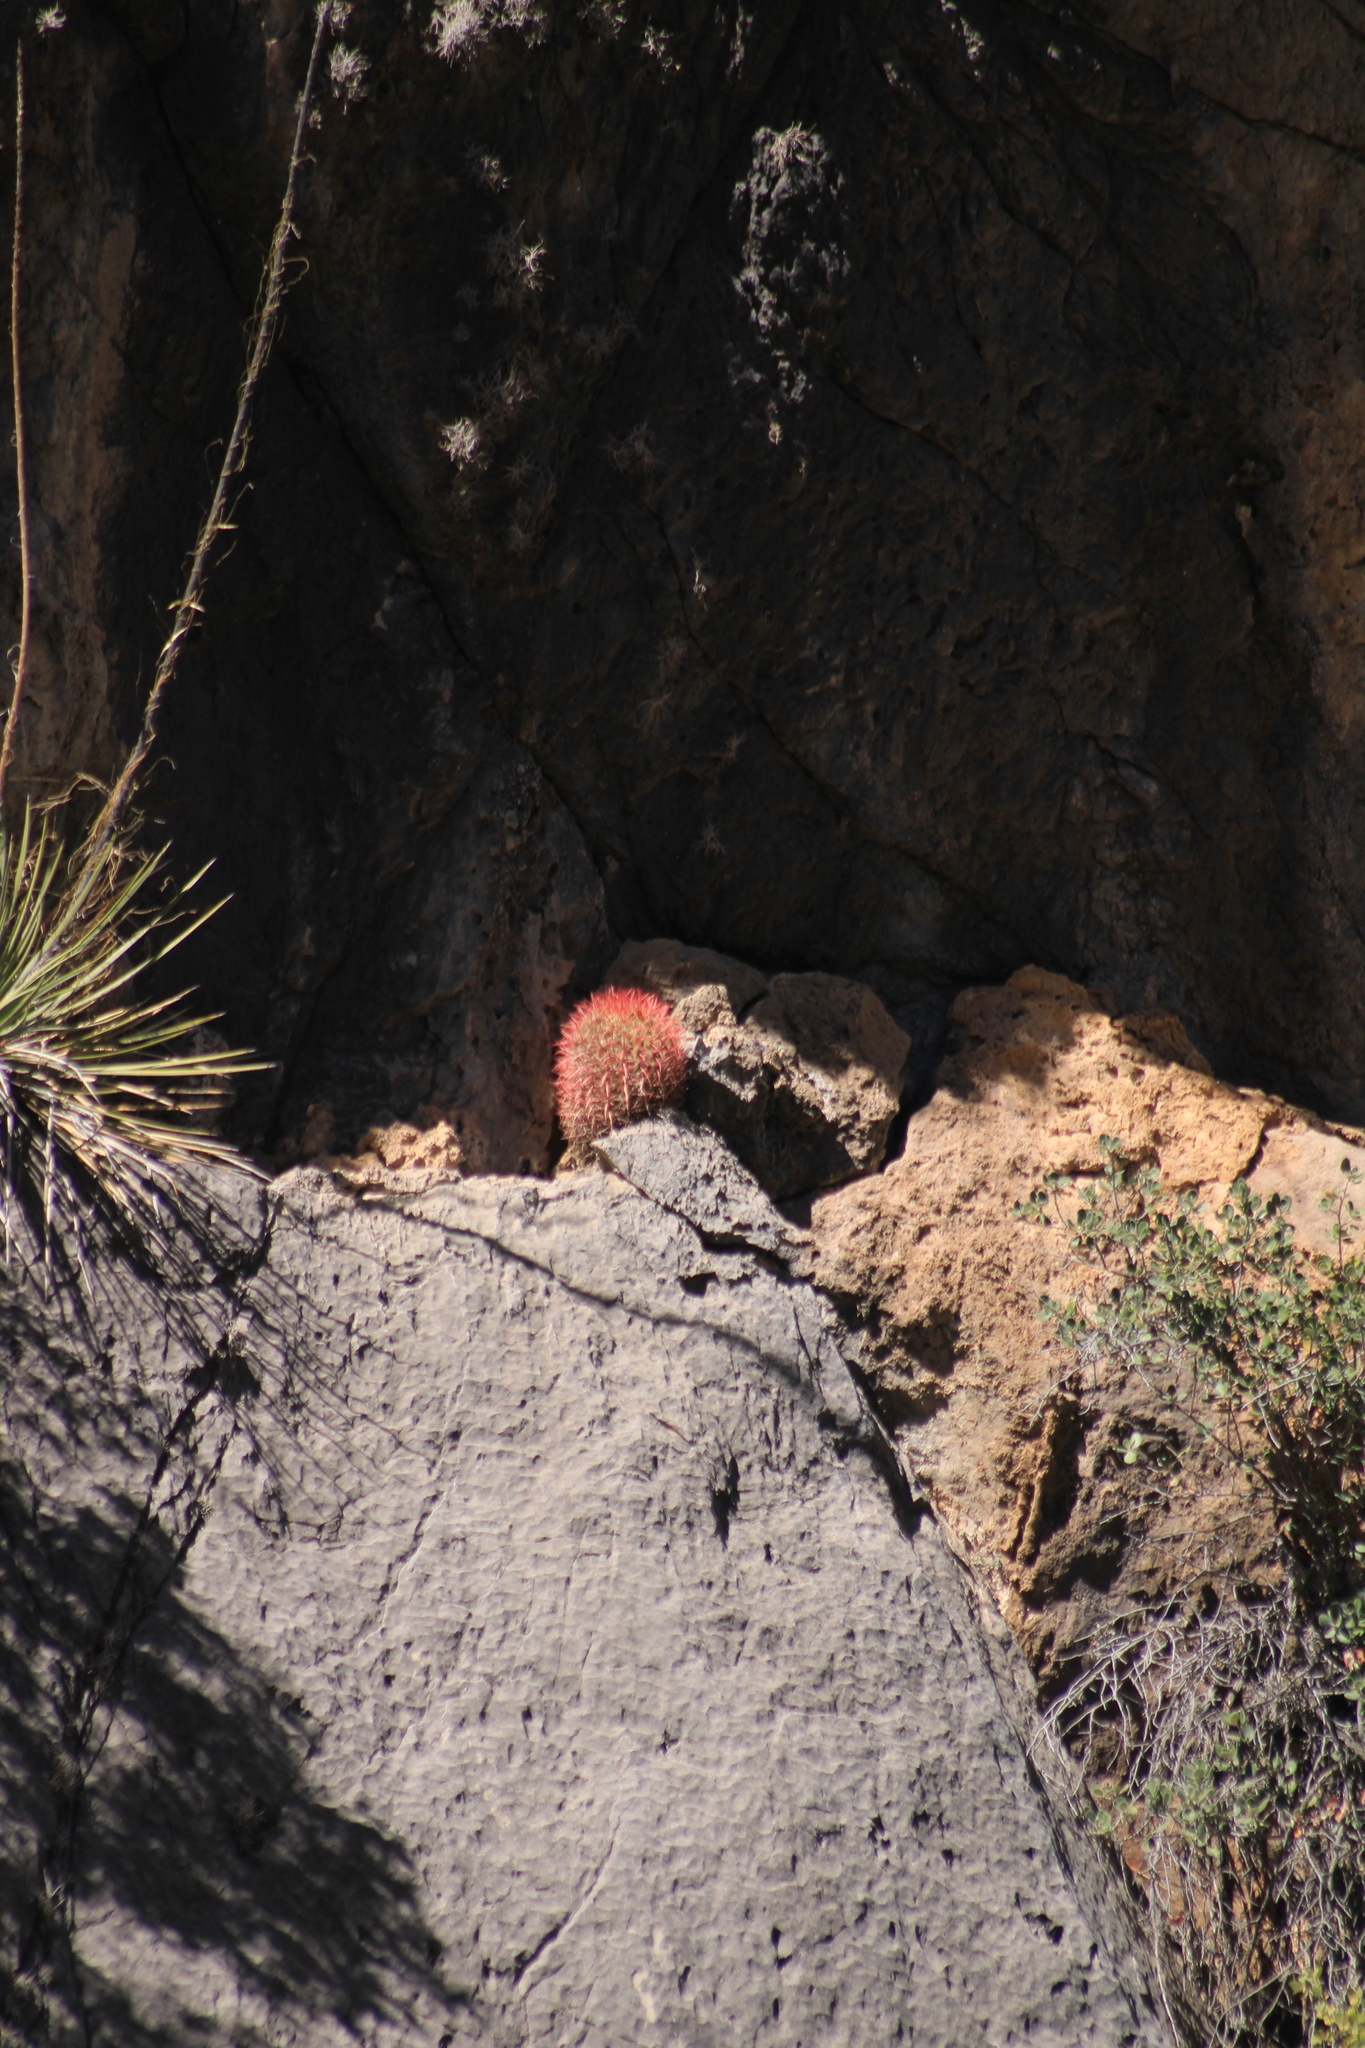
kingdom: Plantae
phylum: Tracheophyta
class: Magnoliopsida
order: Caryophyllales
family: Cactaceae
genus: Ferocactus
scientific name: Ferocactus pilosus
